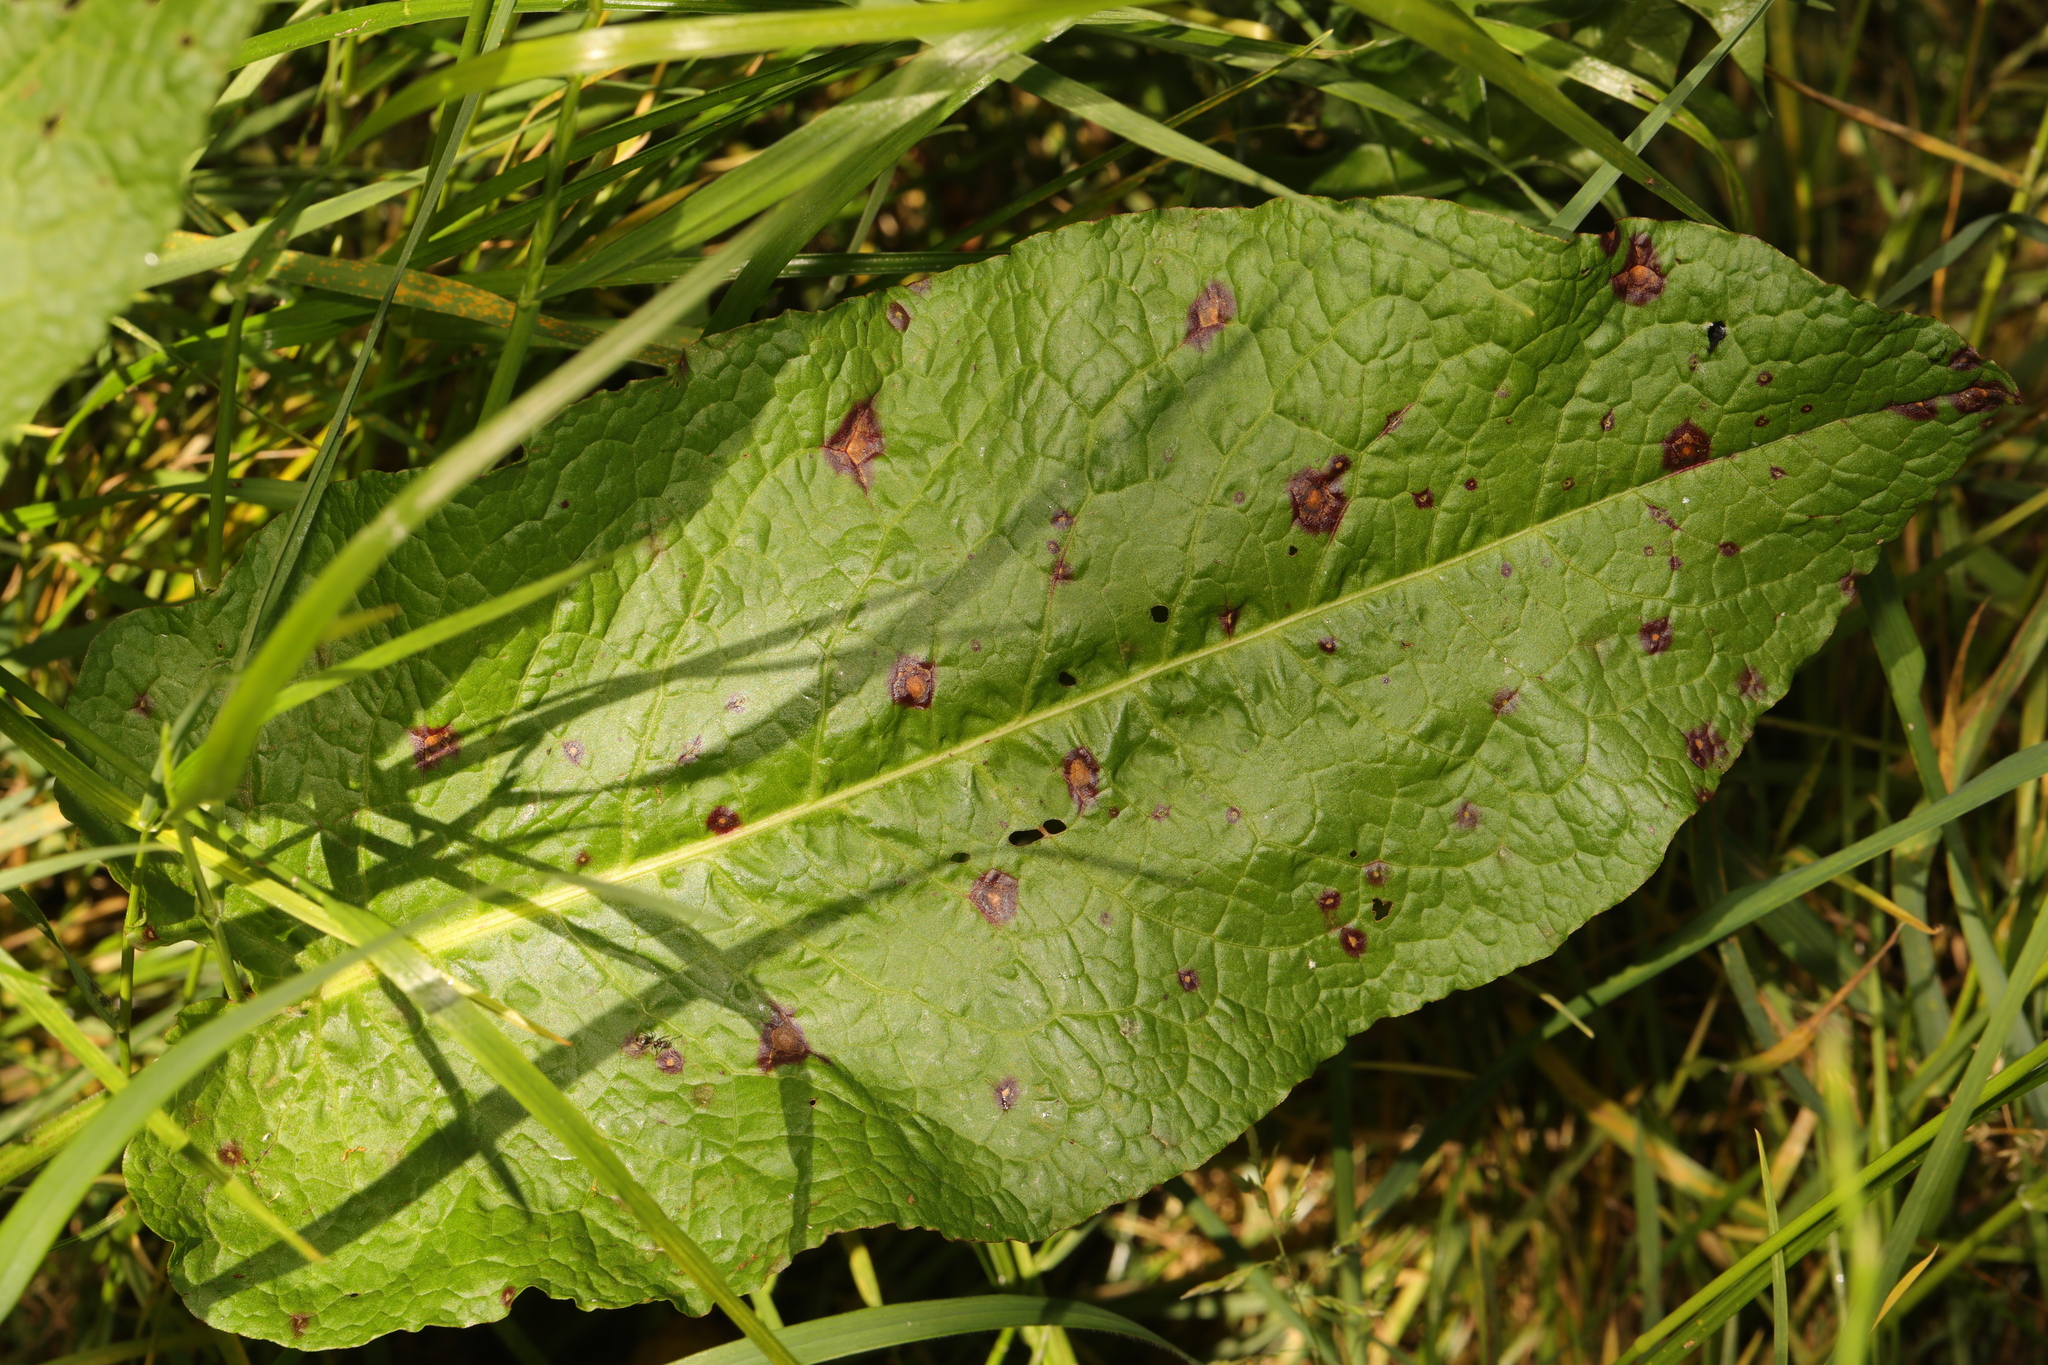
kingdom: Plantae
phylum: Tracheophyta
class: Magnoliopsida
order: Caryophyllales
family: Polygonaceae
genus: Rumex
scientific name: Rumex obtusifolius
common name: Bitter dock
